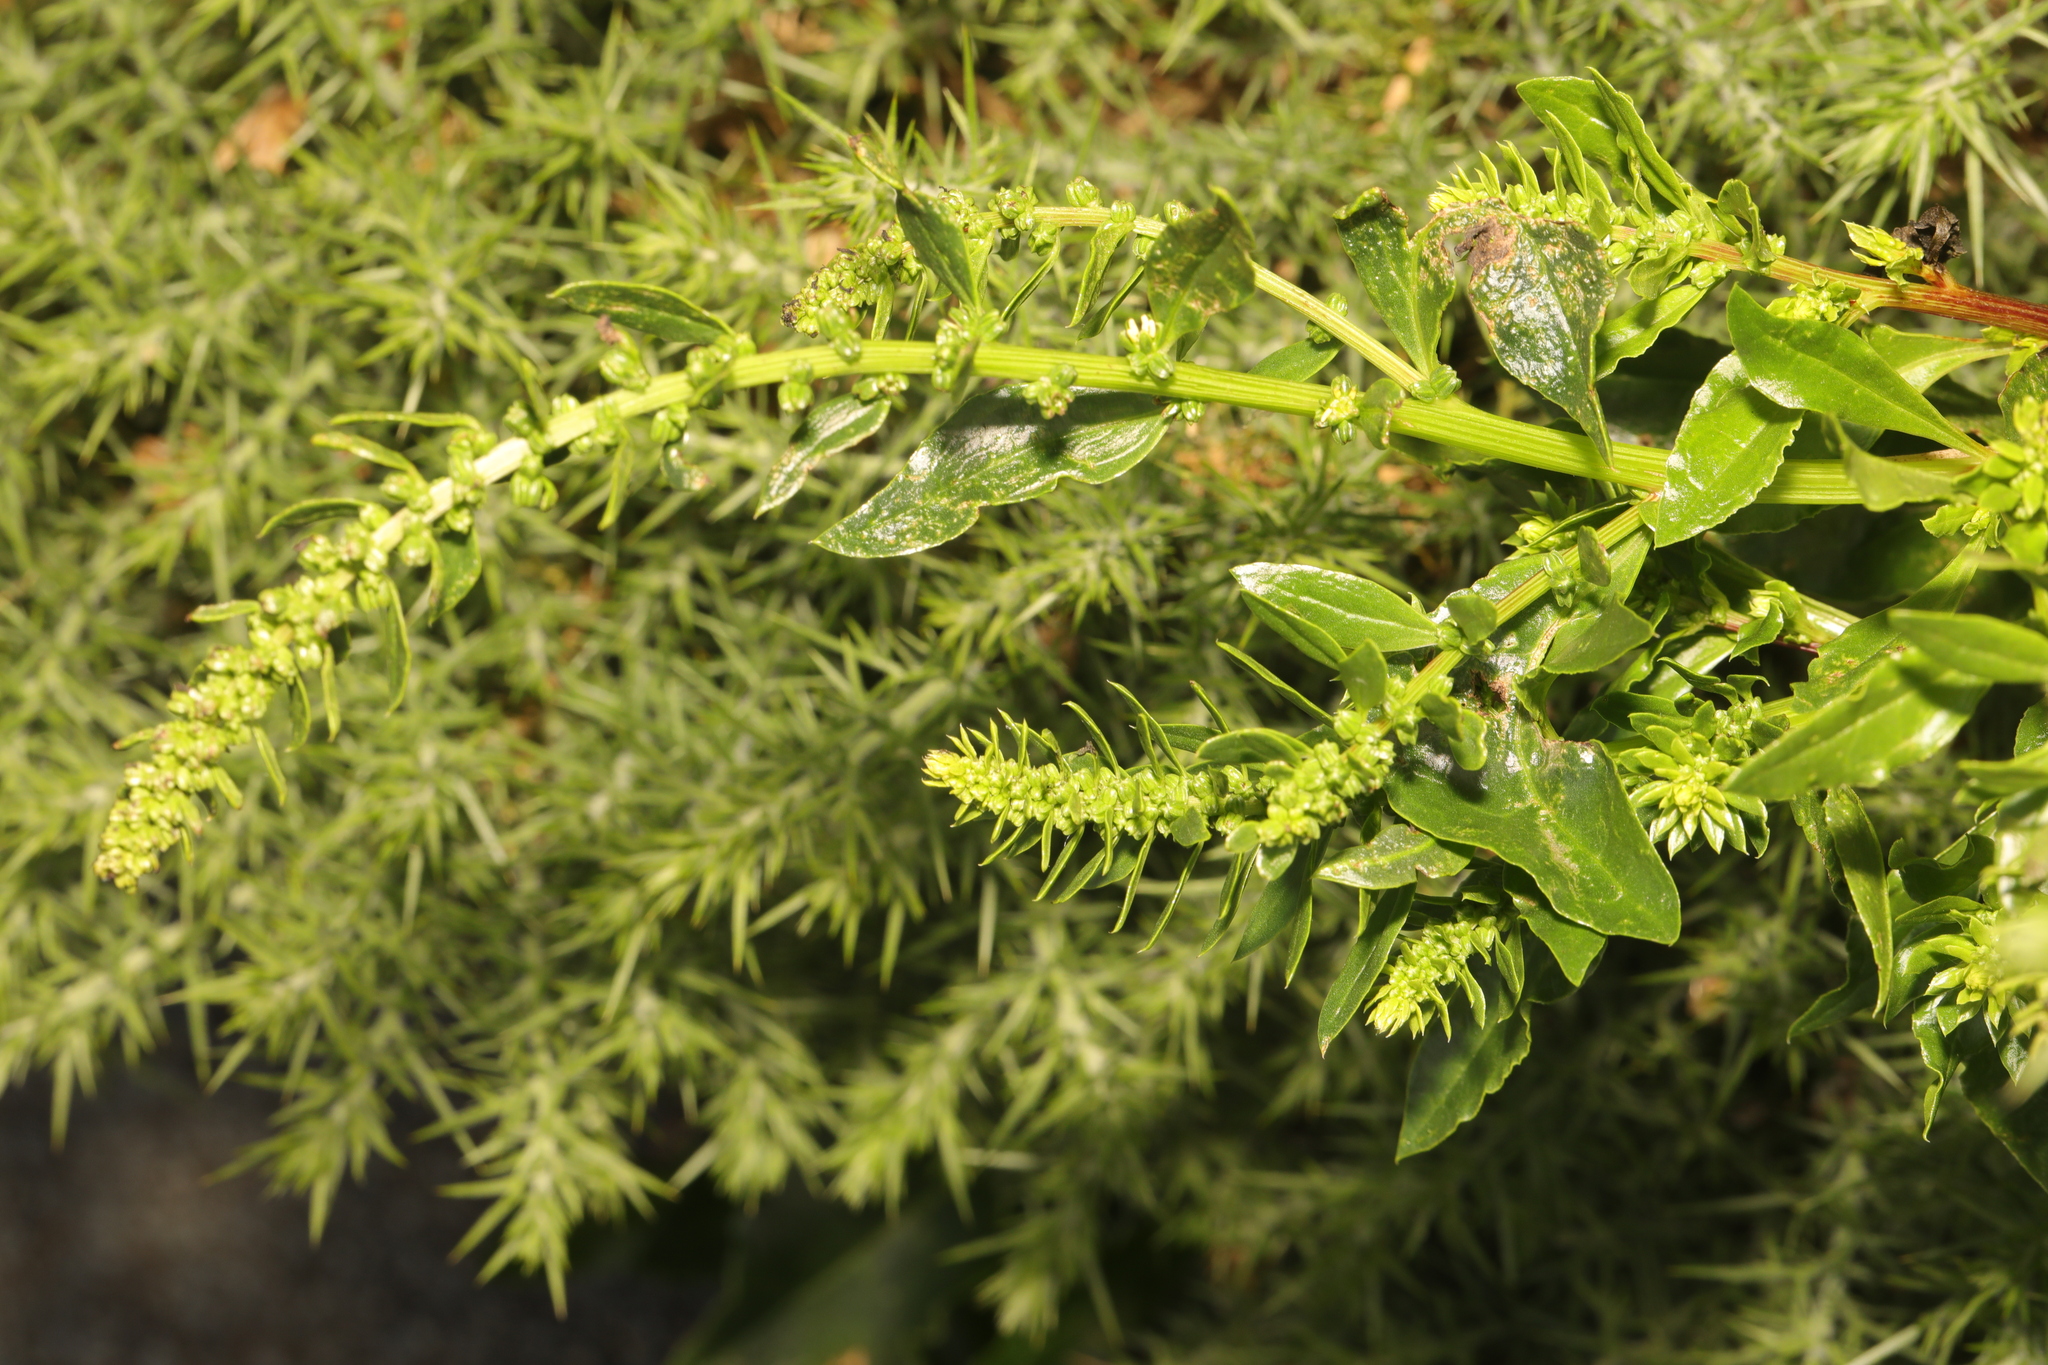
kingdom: Plantae
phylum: Tracheophyta
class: Magnoliopsida
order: Caryophyllales
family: Amaranthaceae
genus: Beta
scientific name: Beta vulgaris
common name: Beet
